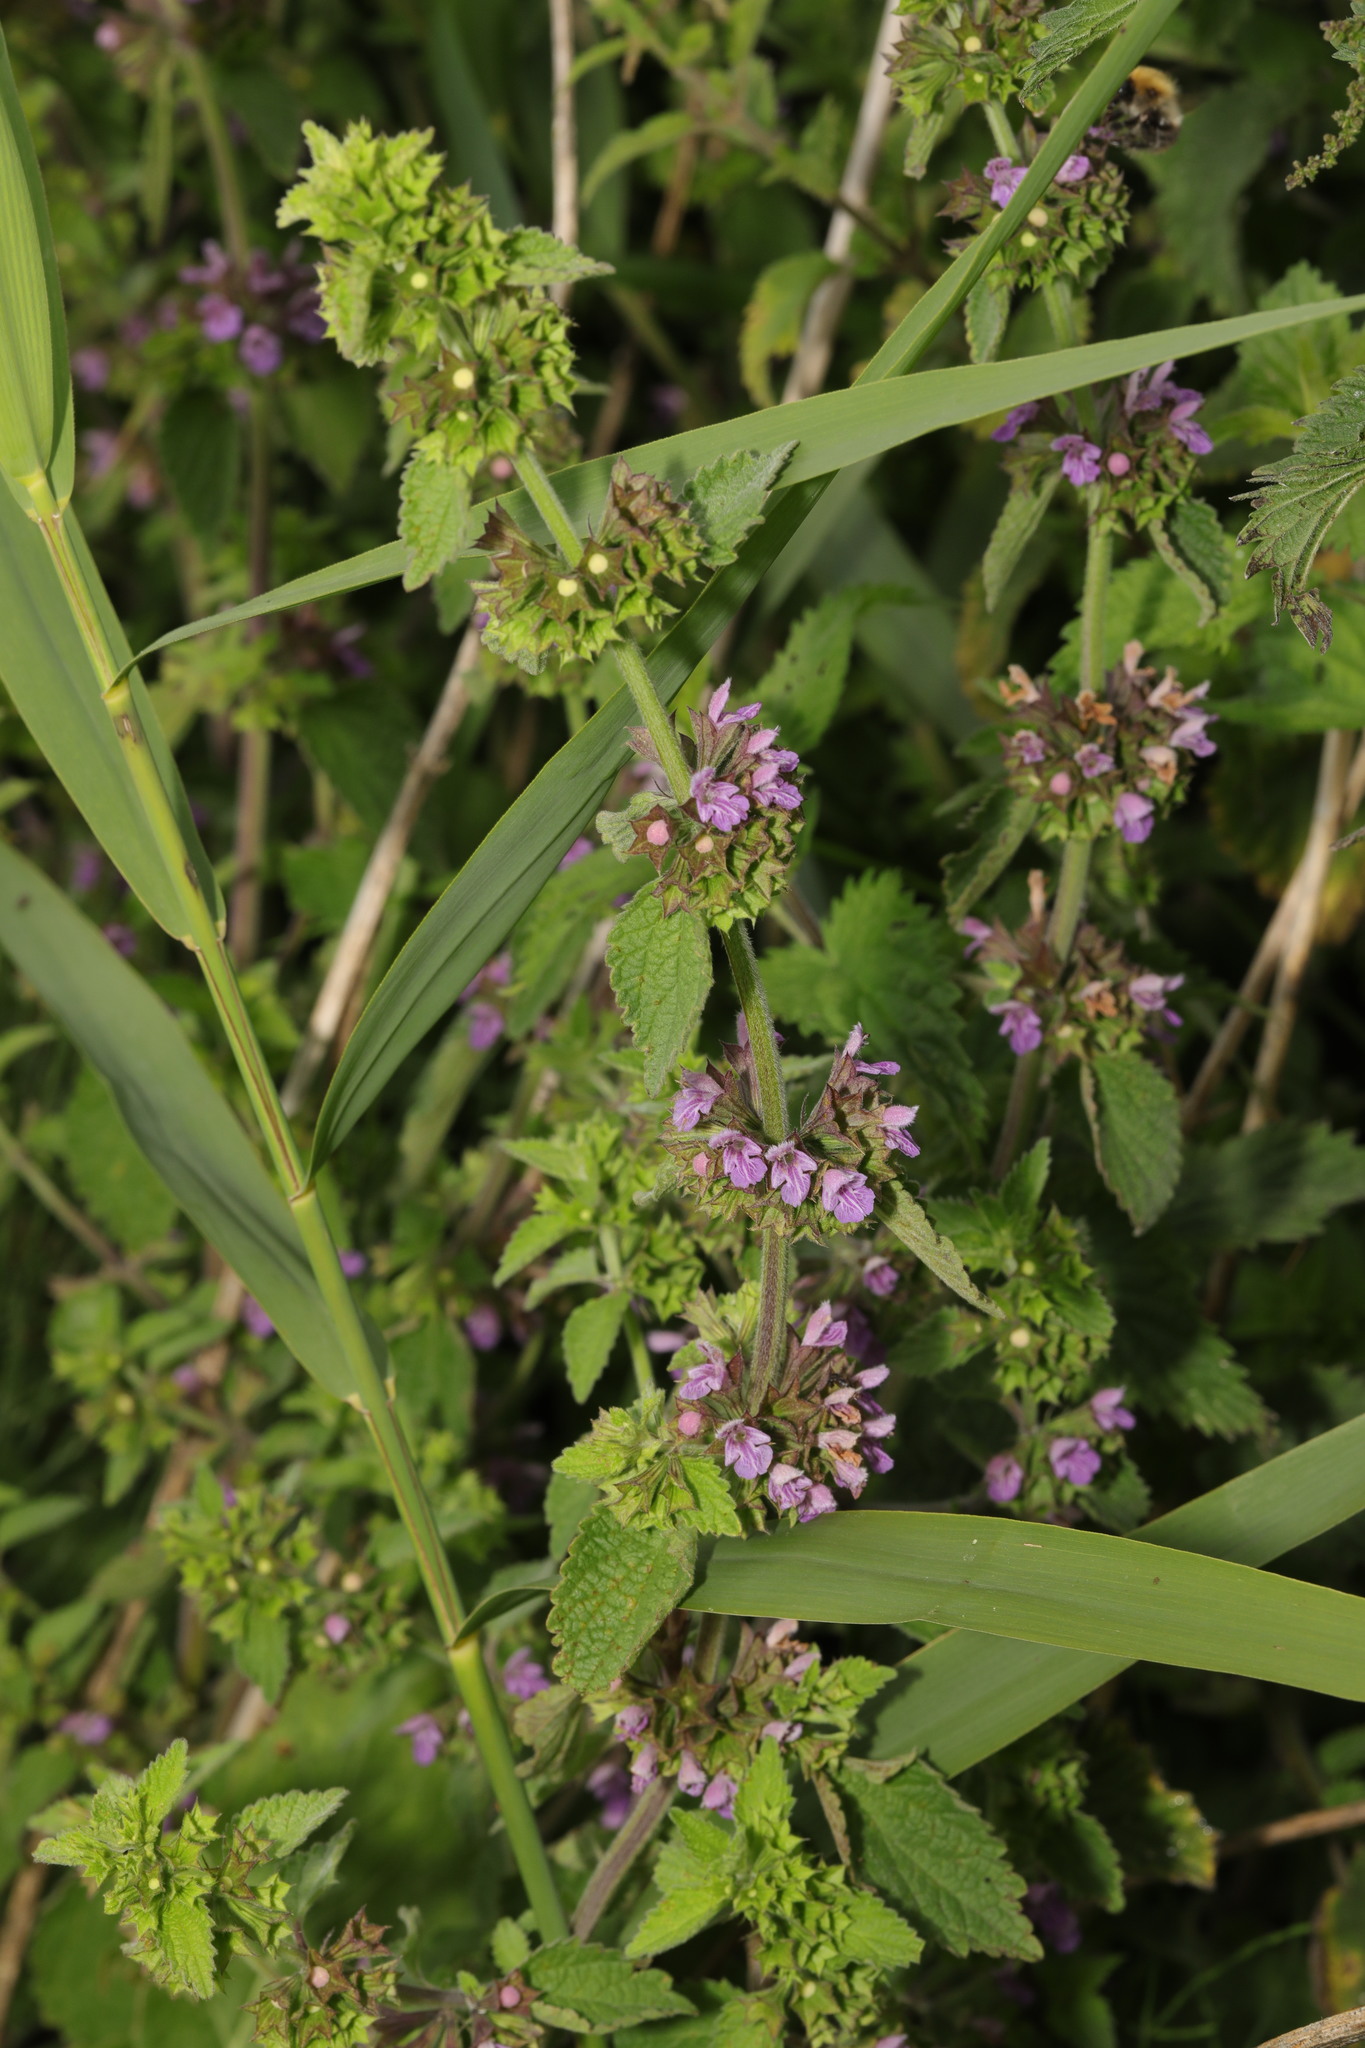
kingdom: Plantae
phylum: Tracheophyta
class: Magnoliopsida
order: Lamiales
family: Lamiaceae
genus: Ballota
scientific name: Ballota nigra
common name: Black horehound
